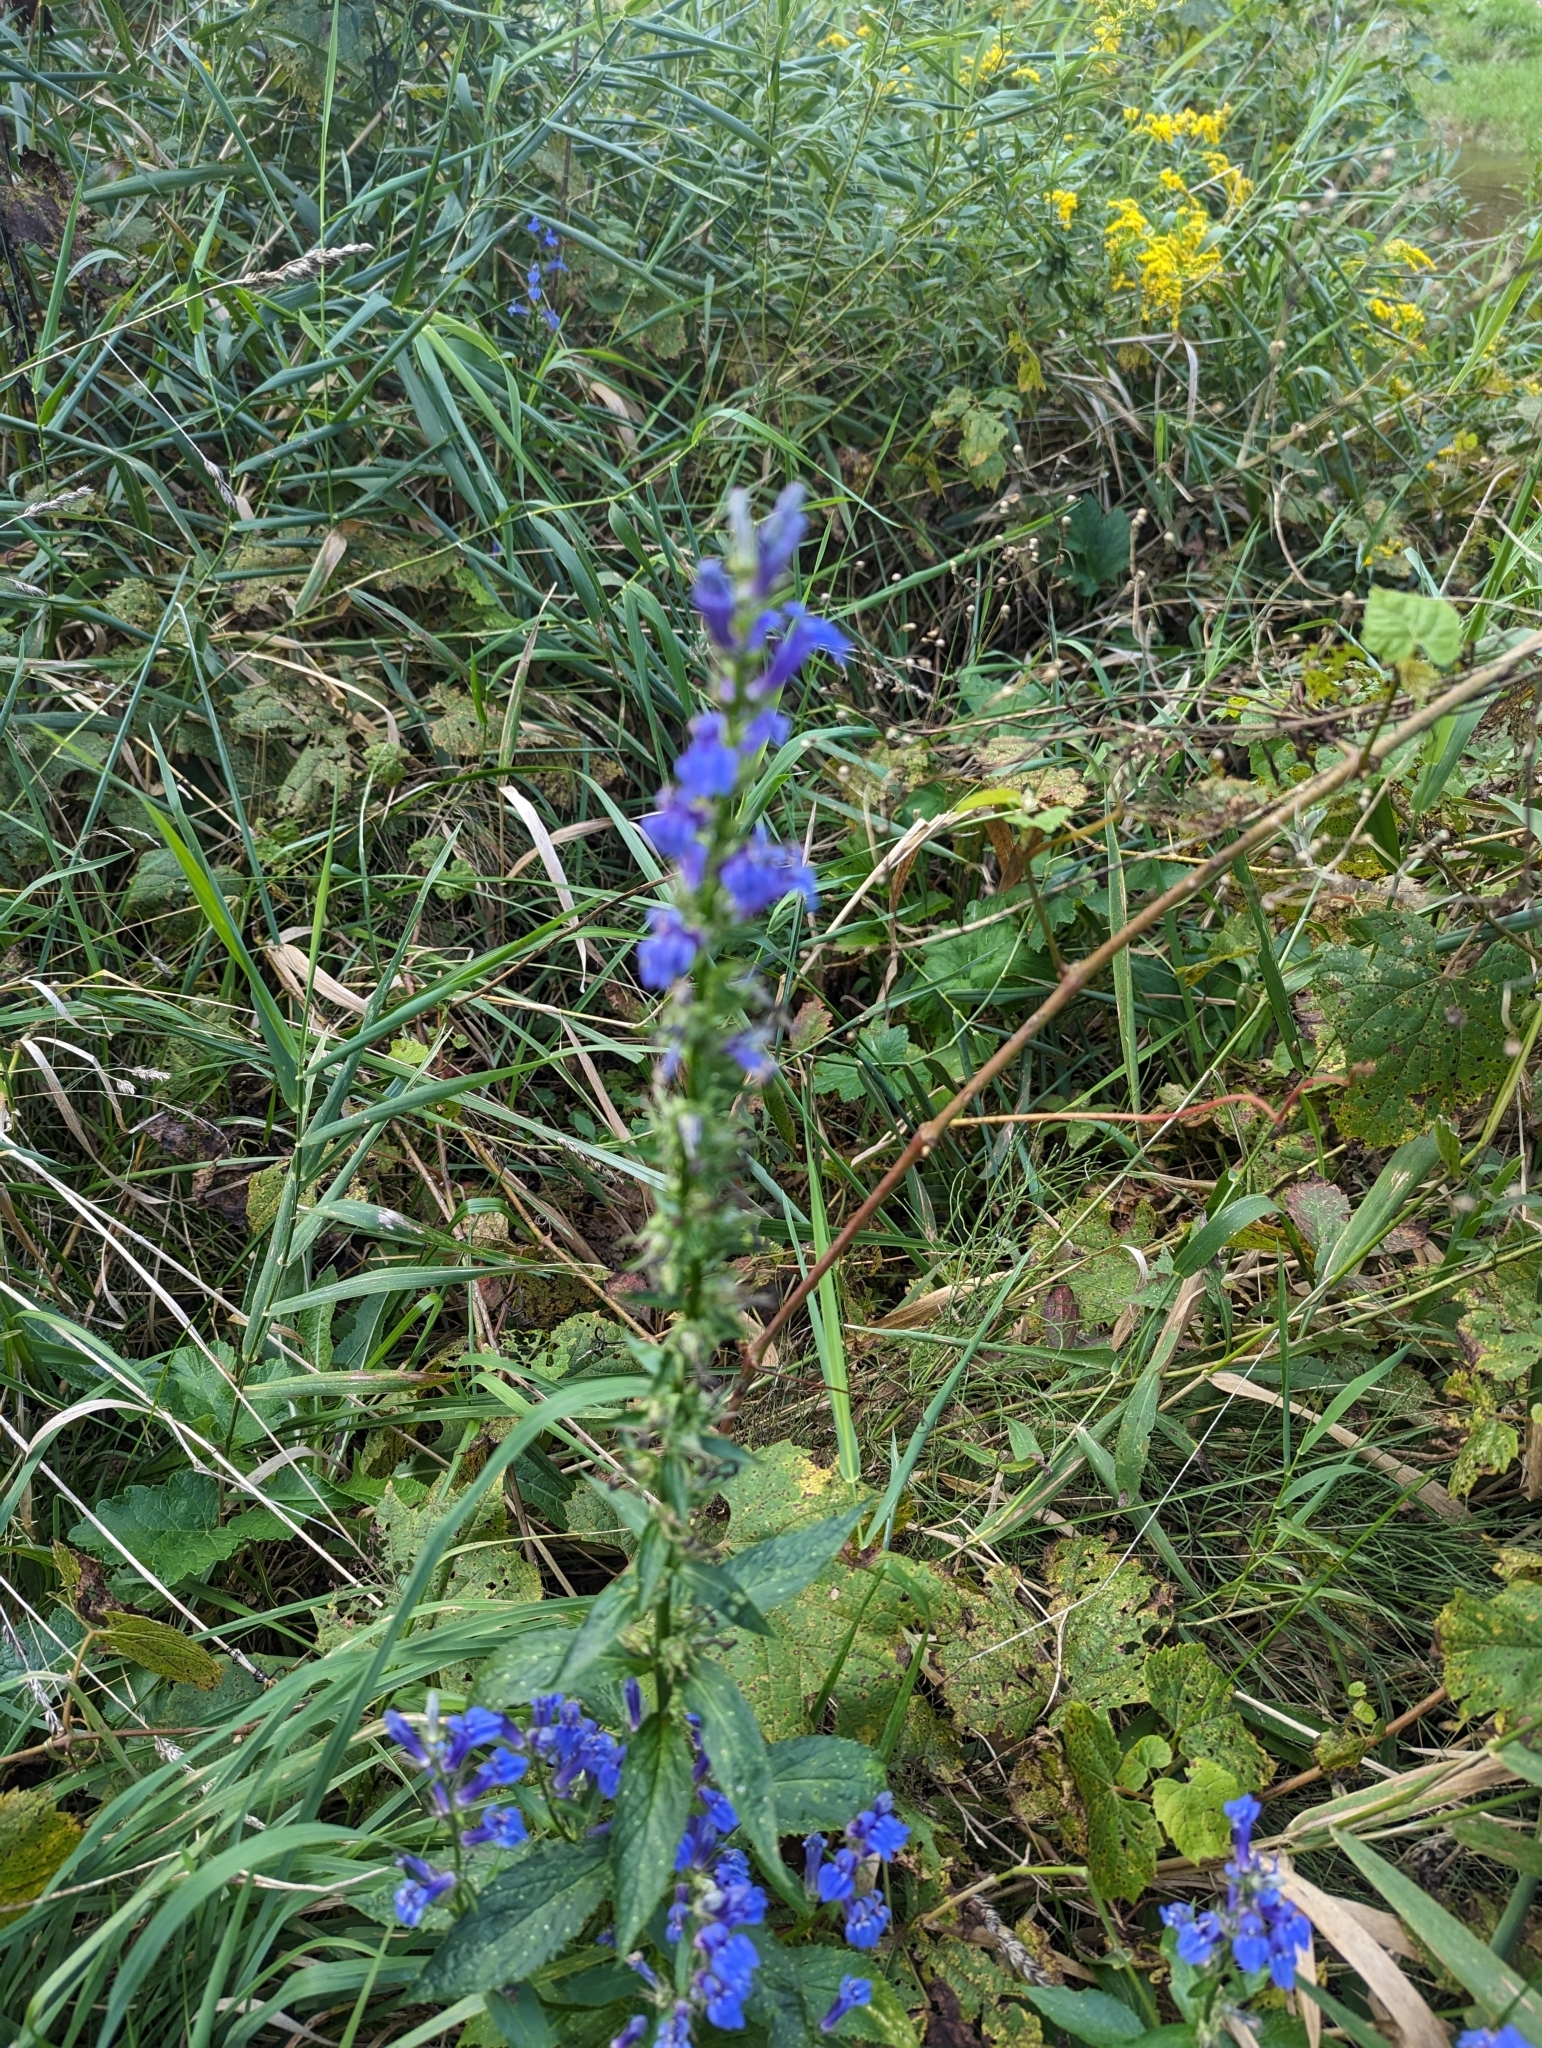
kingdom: Plantae
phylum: Tracheophyta
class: Magnoliopsida
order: Asterales
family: Campanulaceae
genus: Lobelia
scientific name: Lobelia siphilitica
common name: Great lobelia
